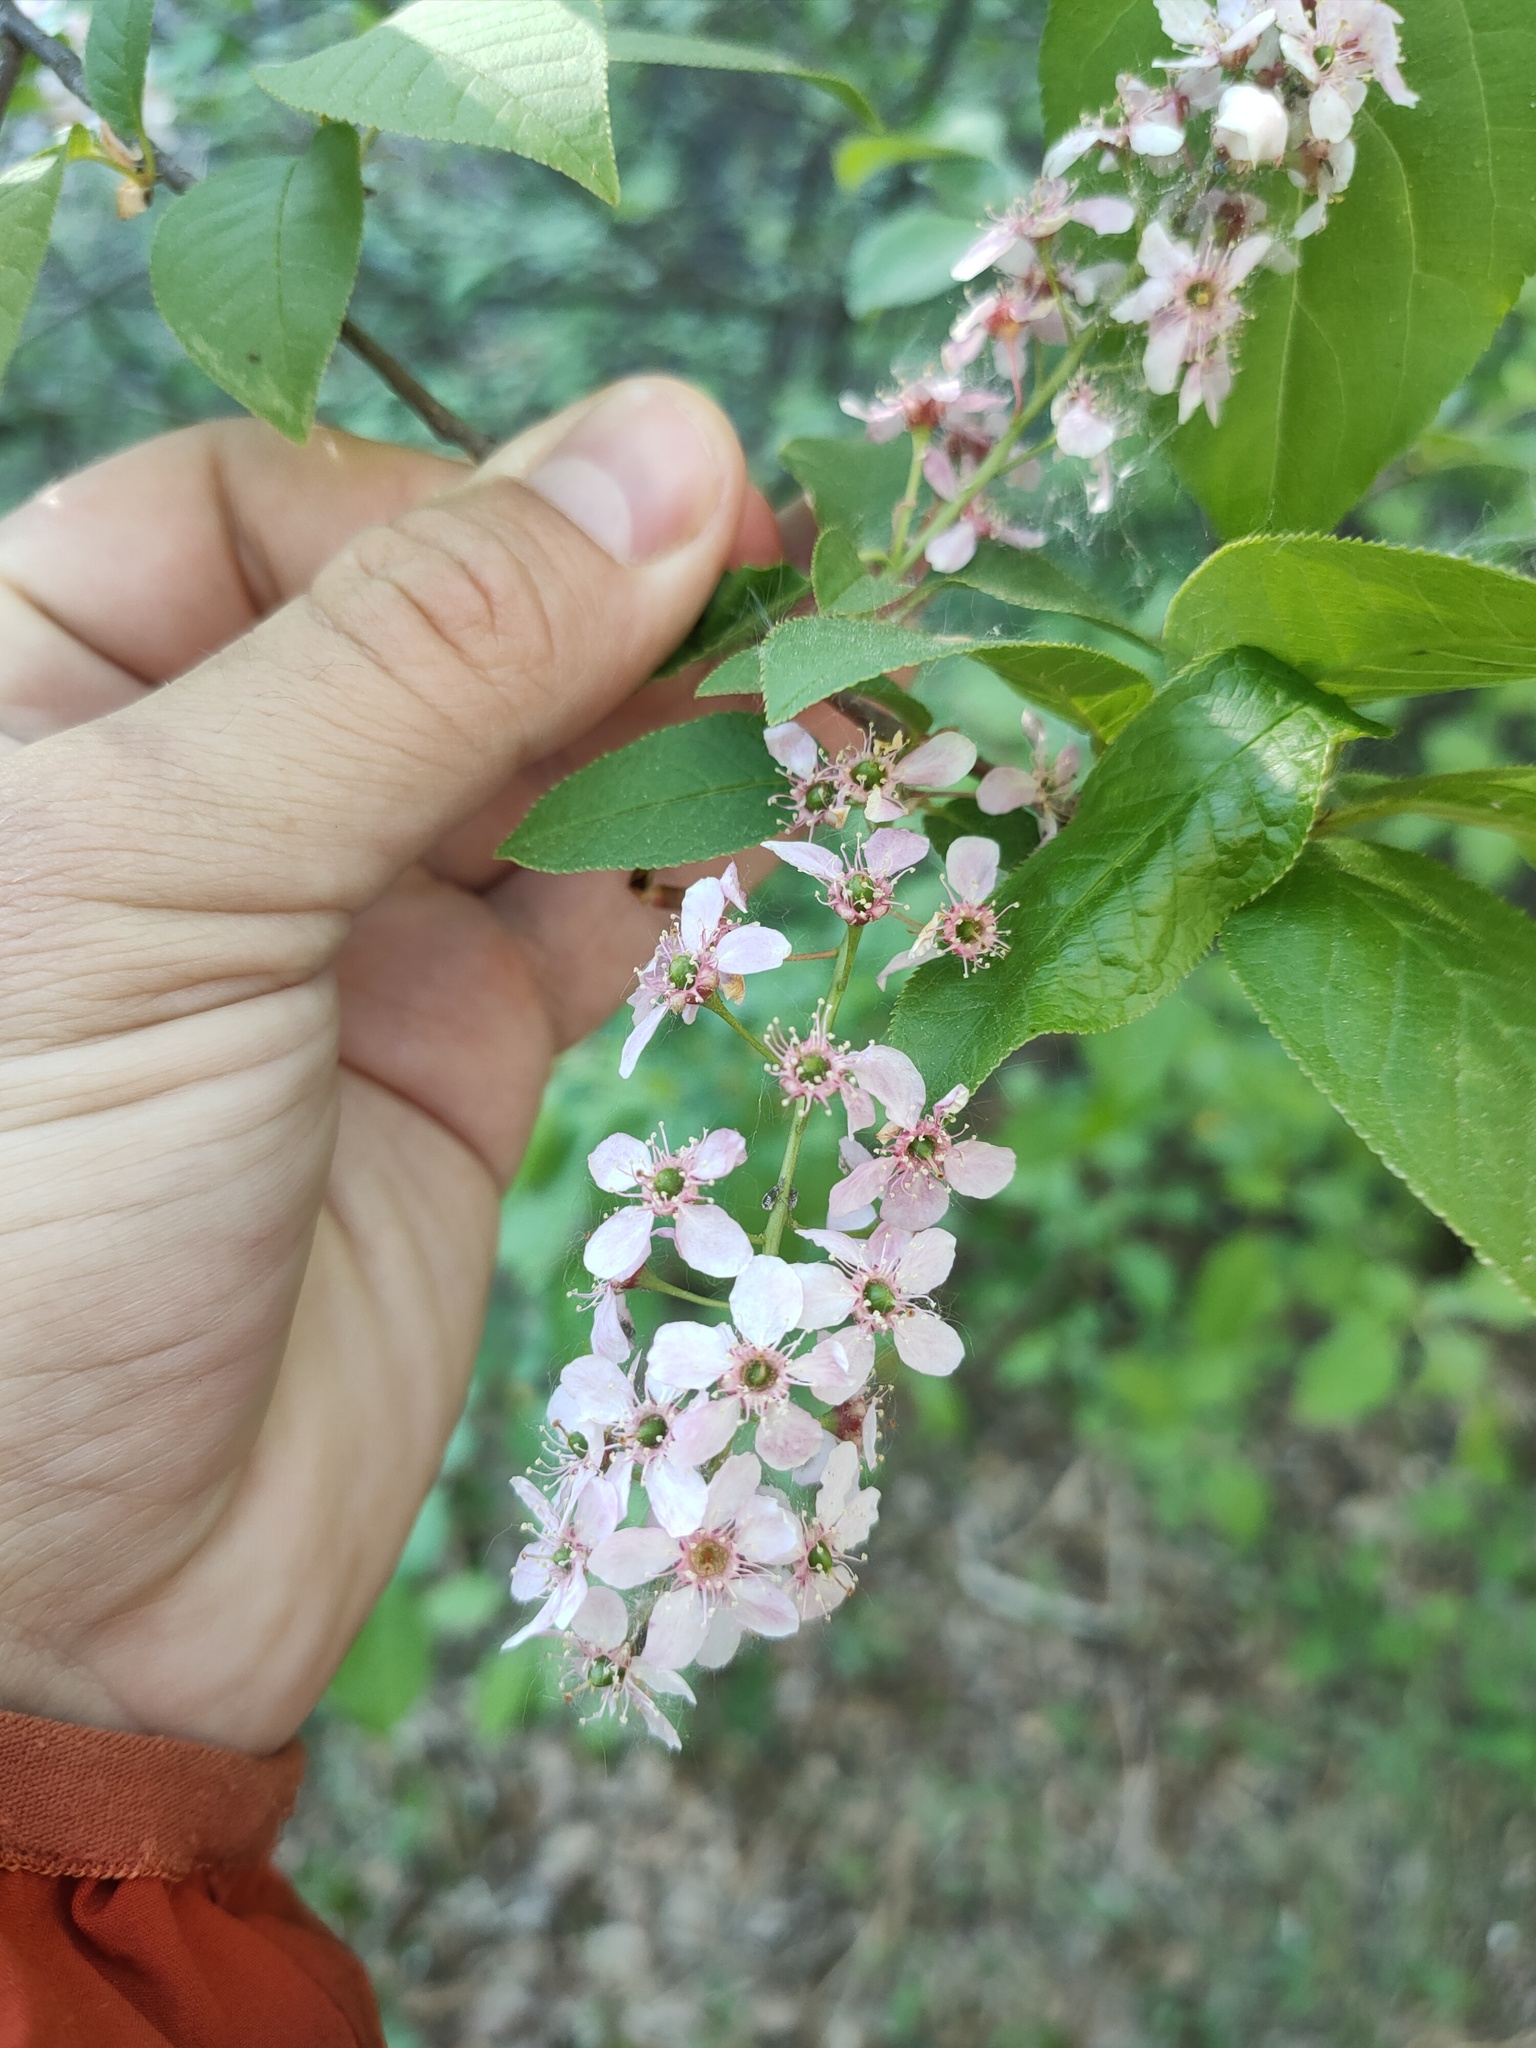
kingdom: Plantae
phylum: Tracheophyta
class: Magnoliopsida
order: Rosales
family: Rosaceae
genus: Prunus
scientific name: Prunus padus
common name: Bird cherry
